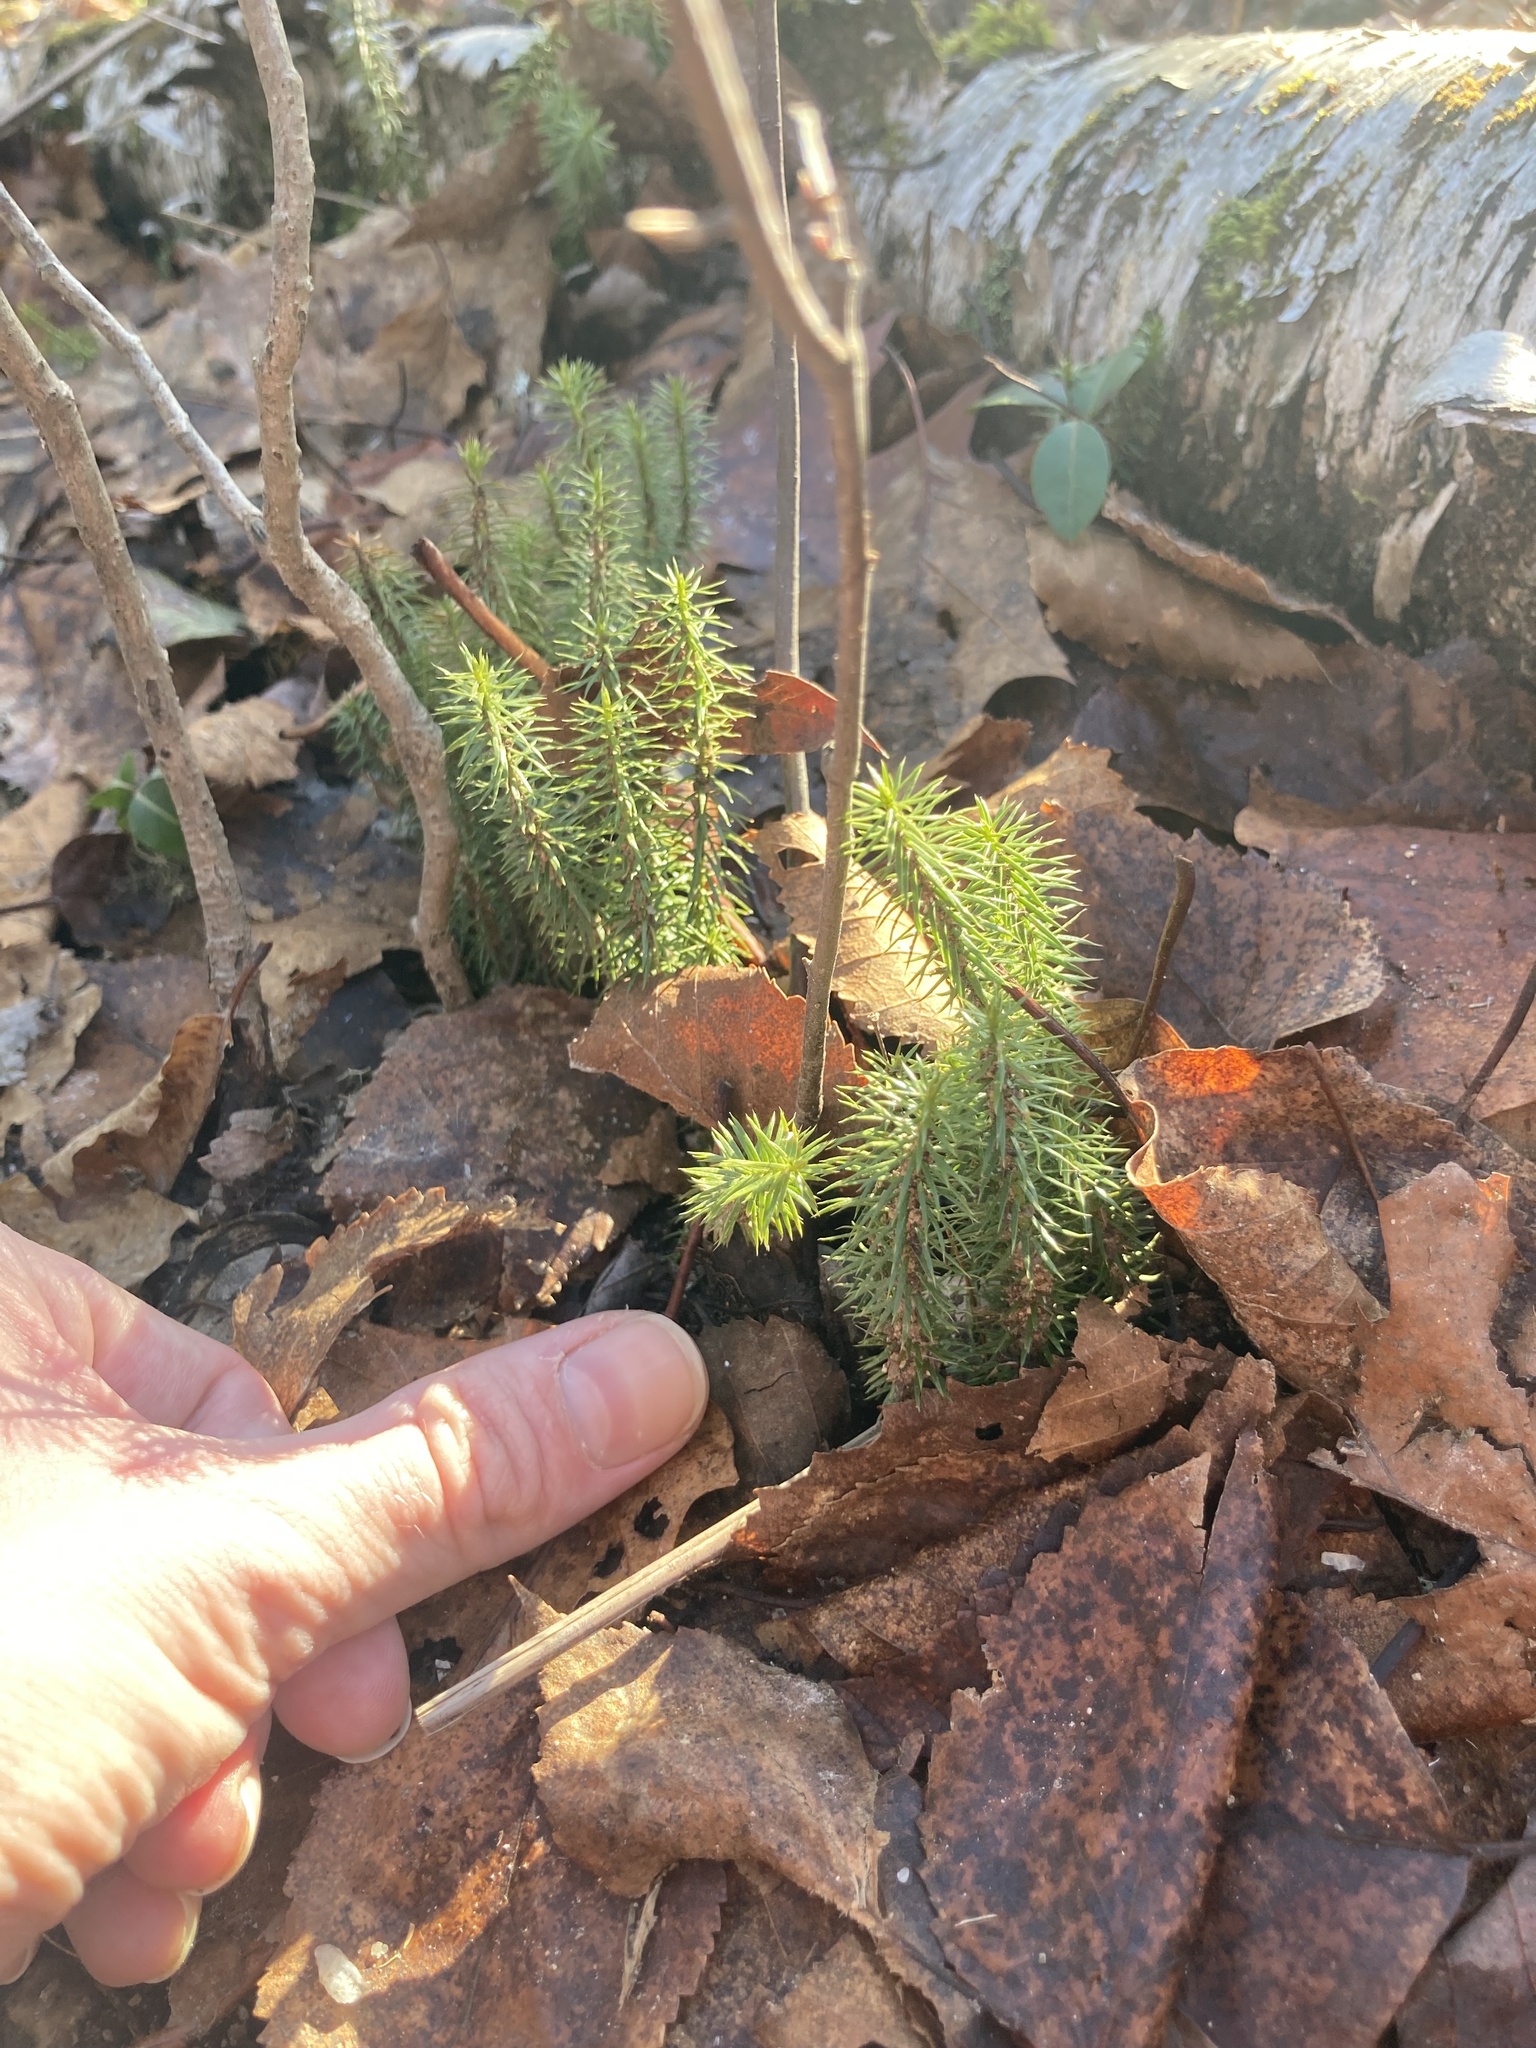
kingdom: Plantae
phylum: Tracheophyta
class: Lycopodiopsida
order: Lycopodiales
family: Lycopodiaceae
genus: Spinulum
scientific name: Spinulum annotinum
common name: Interrupted club-moss
